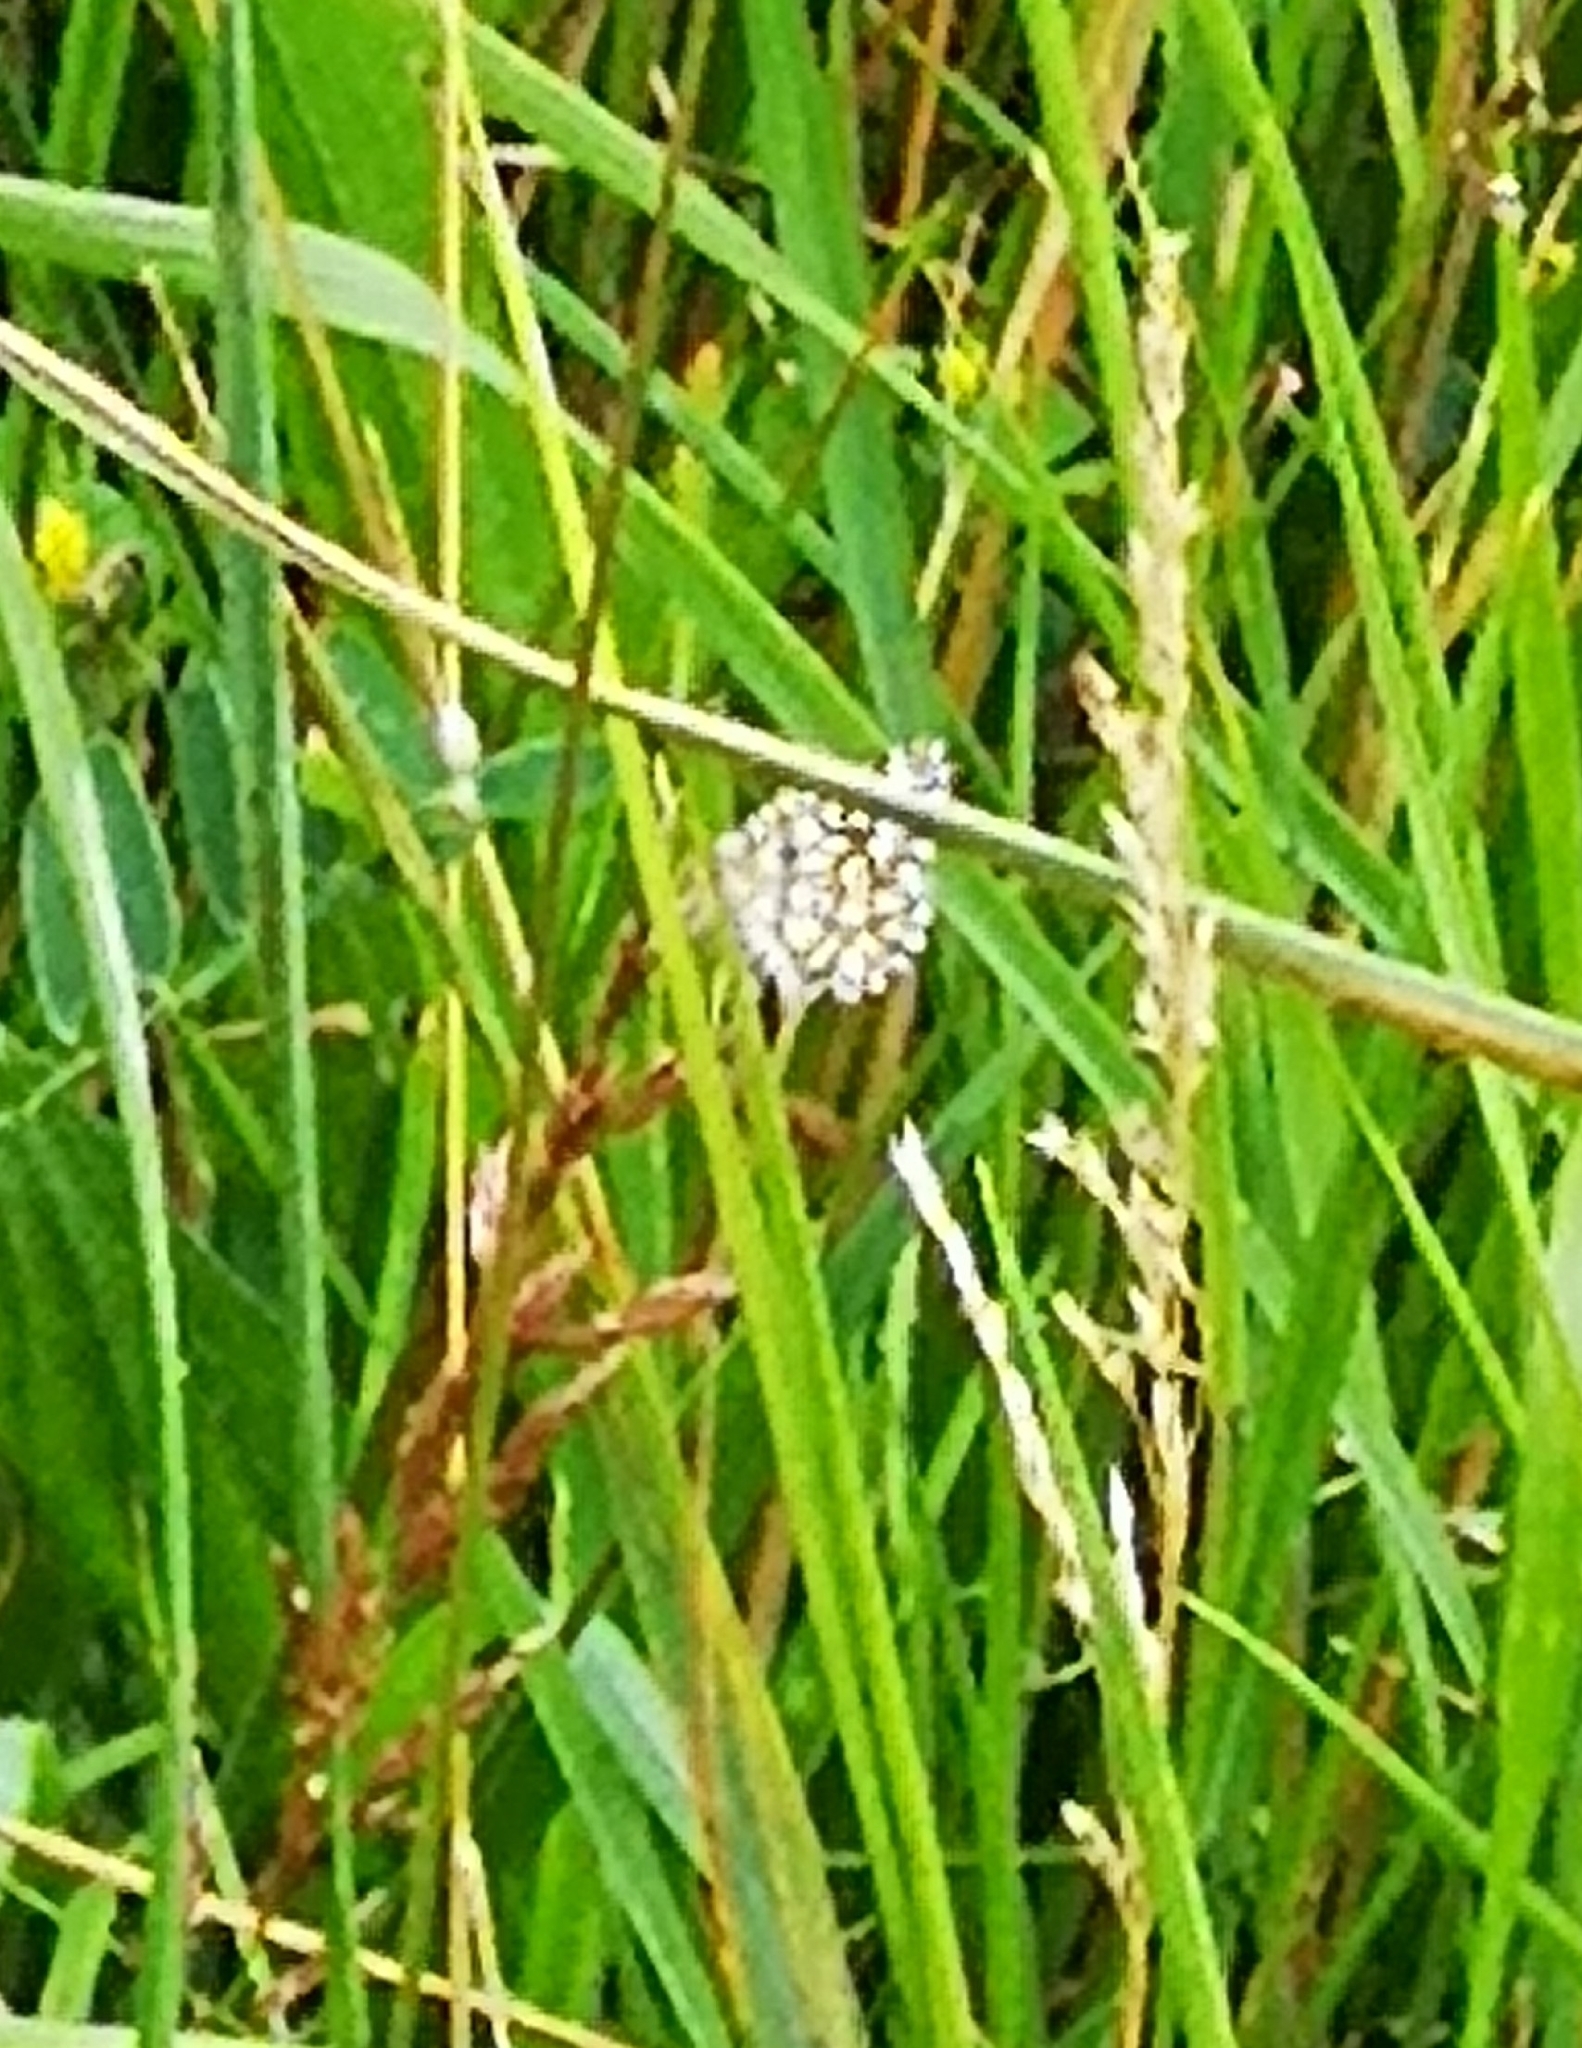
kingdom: Animalia
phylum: Arthropoda
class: Insecta
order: Lepidoptera
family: Geometridae
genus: Chiasmia
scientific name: Chiasmia clathrata
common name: Latticed heath
